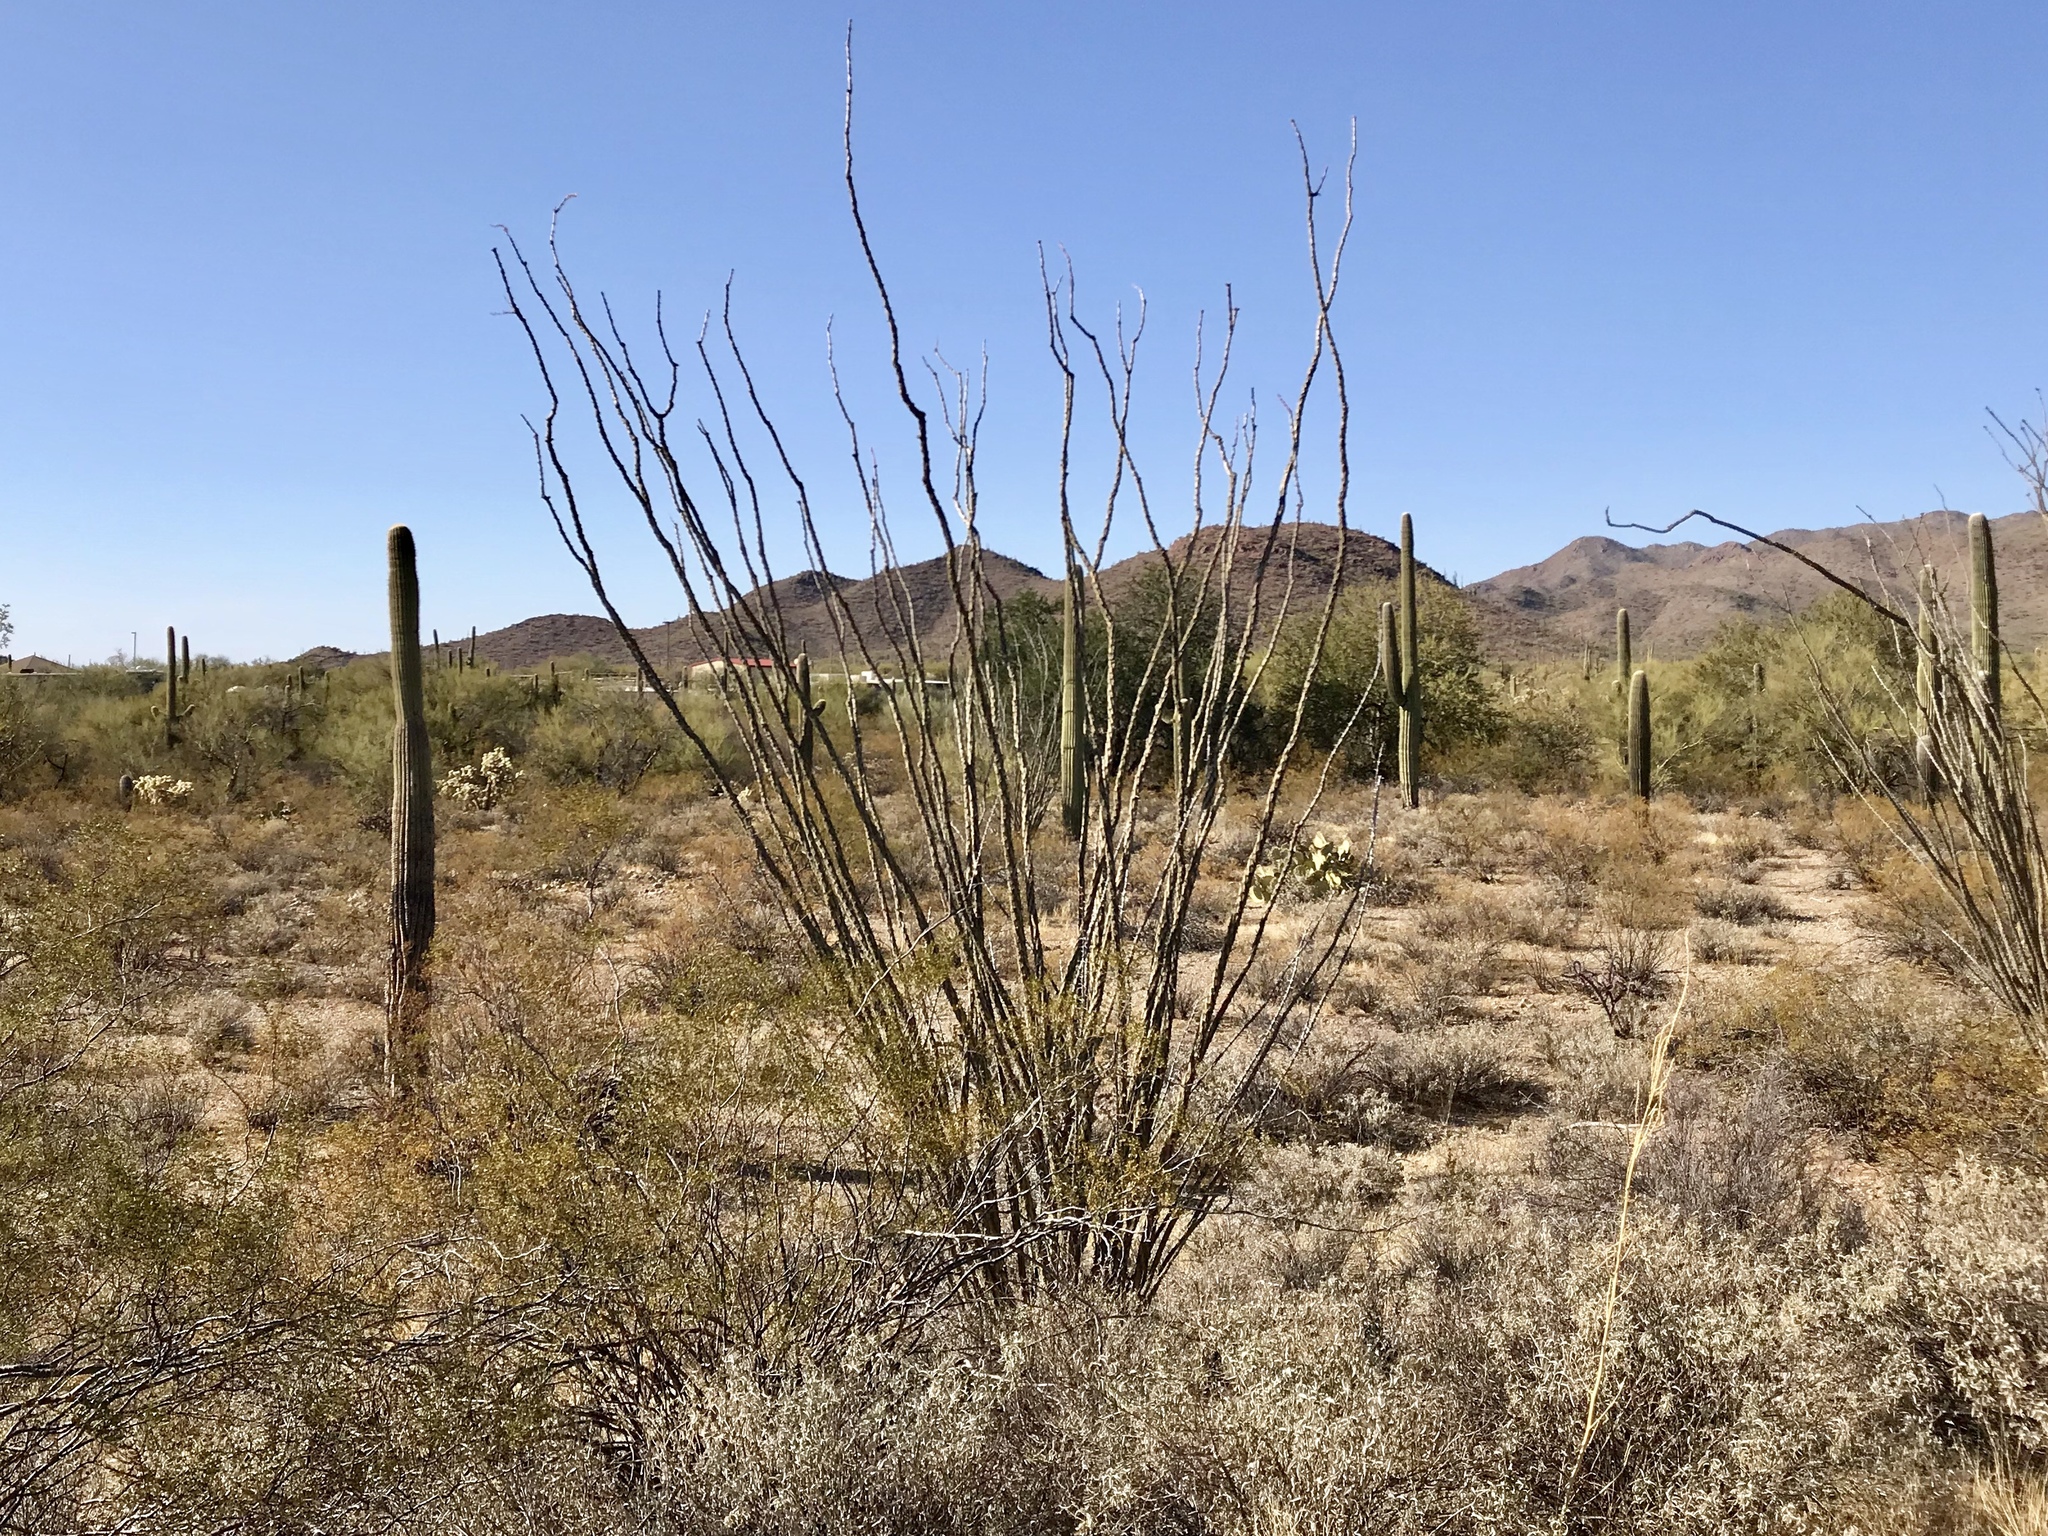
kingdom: Plantae
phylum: Tracheophyta
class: Magnoliopsida
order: Ericales
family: Fouquieriaceae
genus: Fouquieria
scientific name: Fouquieria splendens
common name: Vine-cactus
